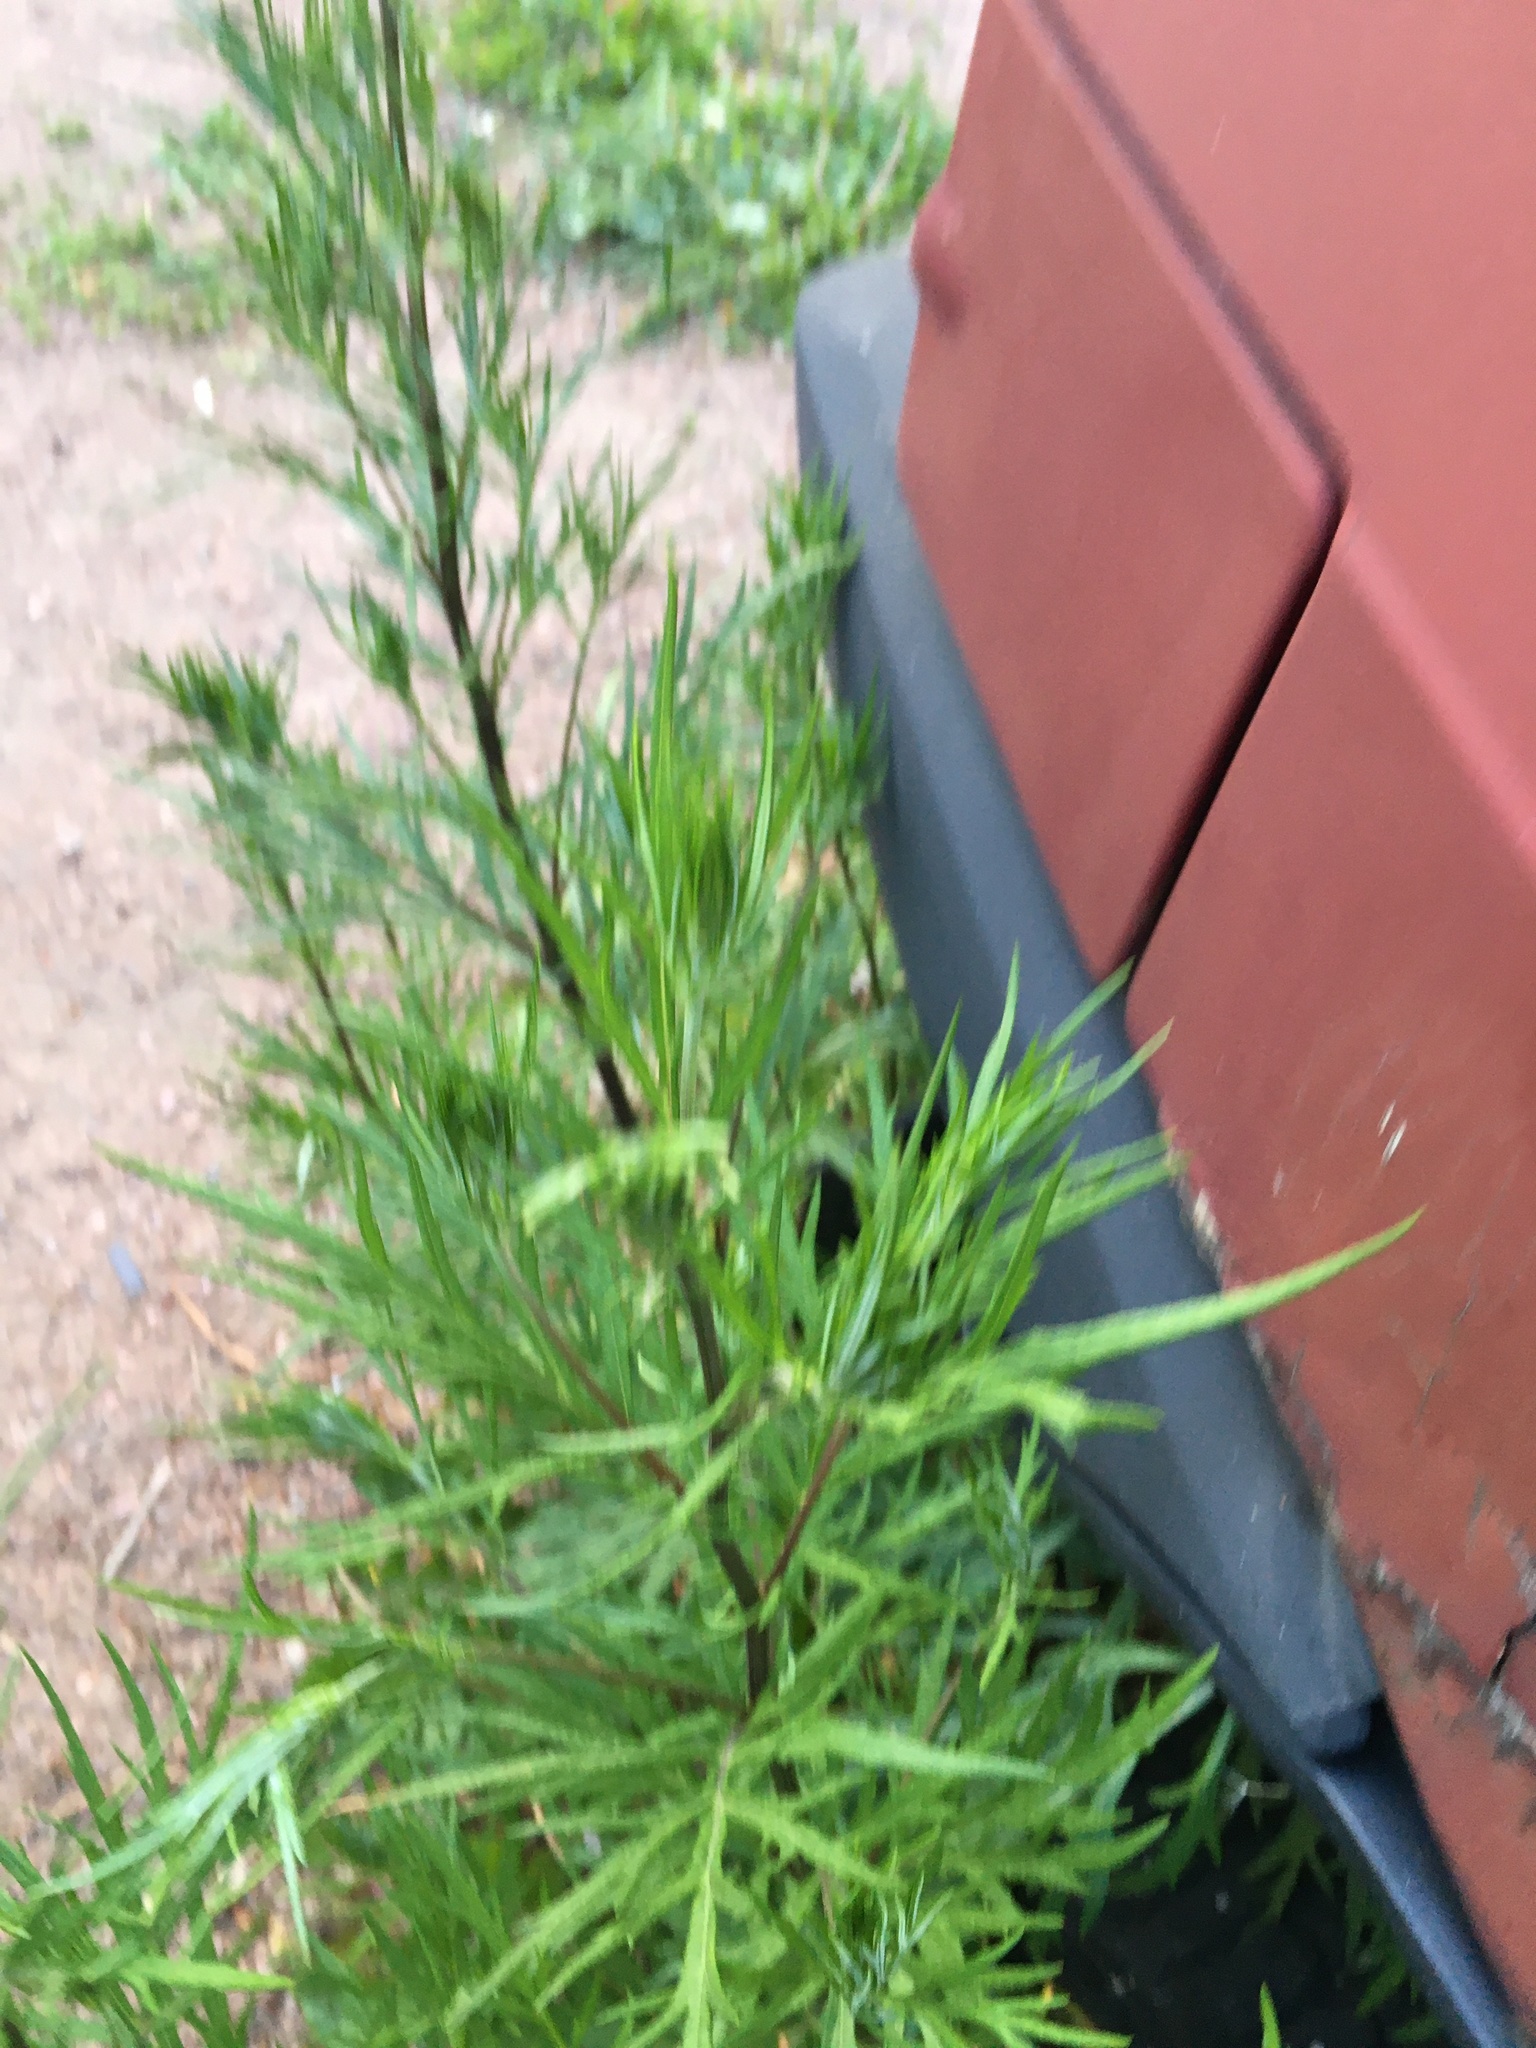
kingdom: Plantae
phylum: Tracheophyta
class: Magnoliopsida
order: Asterales
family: Asteraceae
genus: Artemisia
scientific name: Artemisia vulgaris
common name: Mugwort
